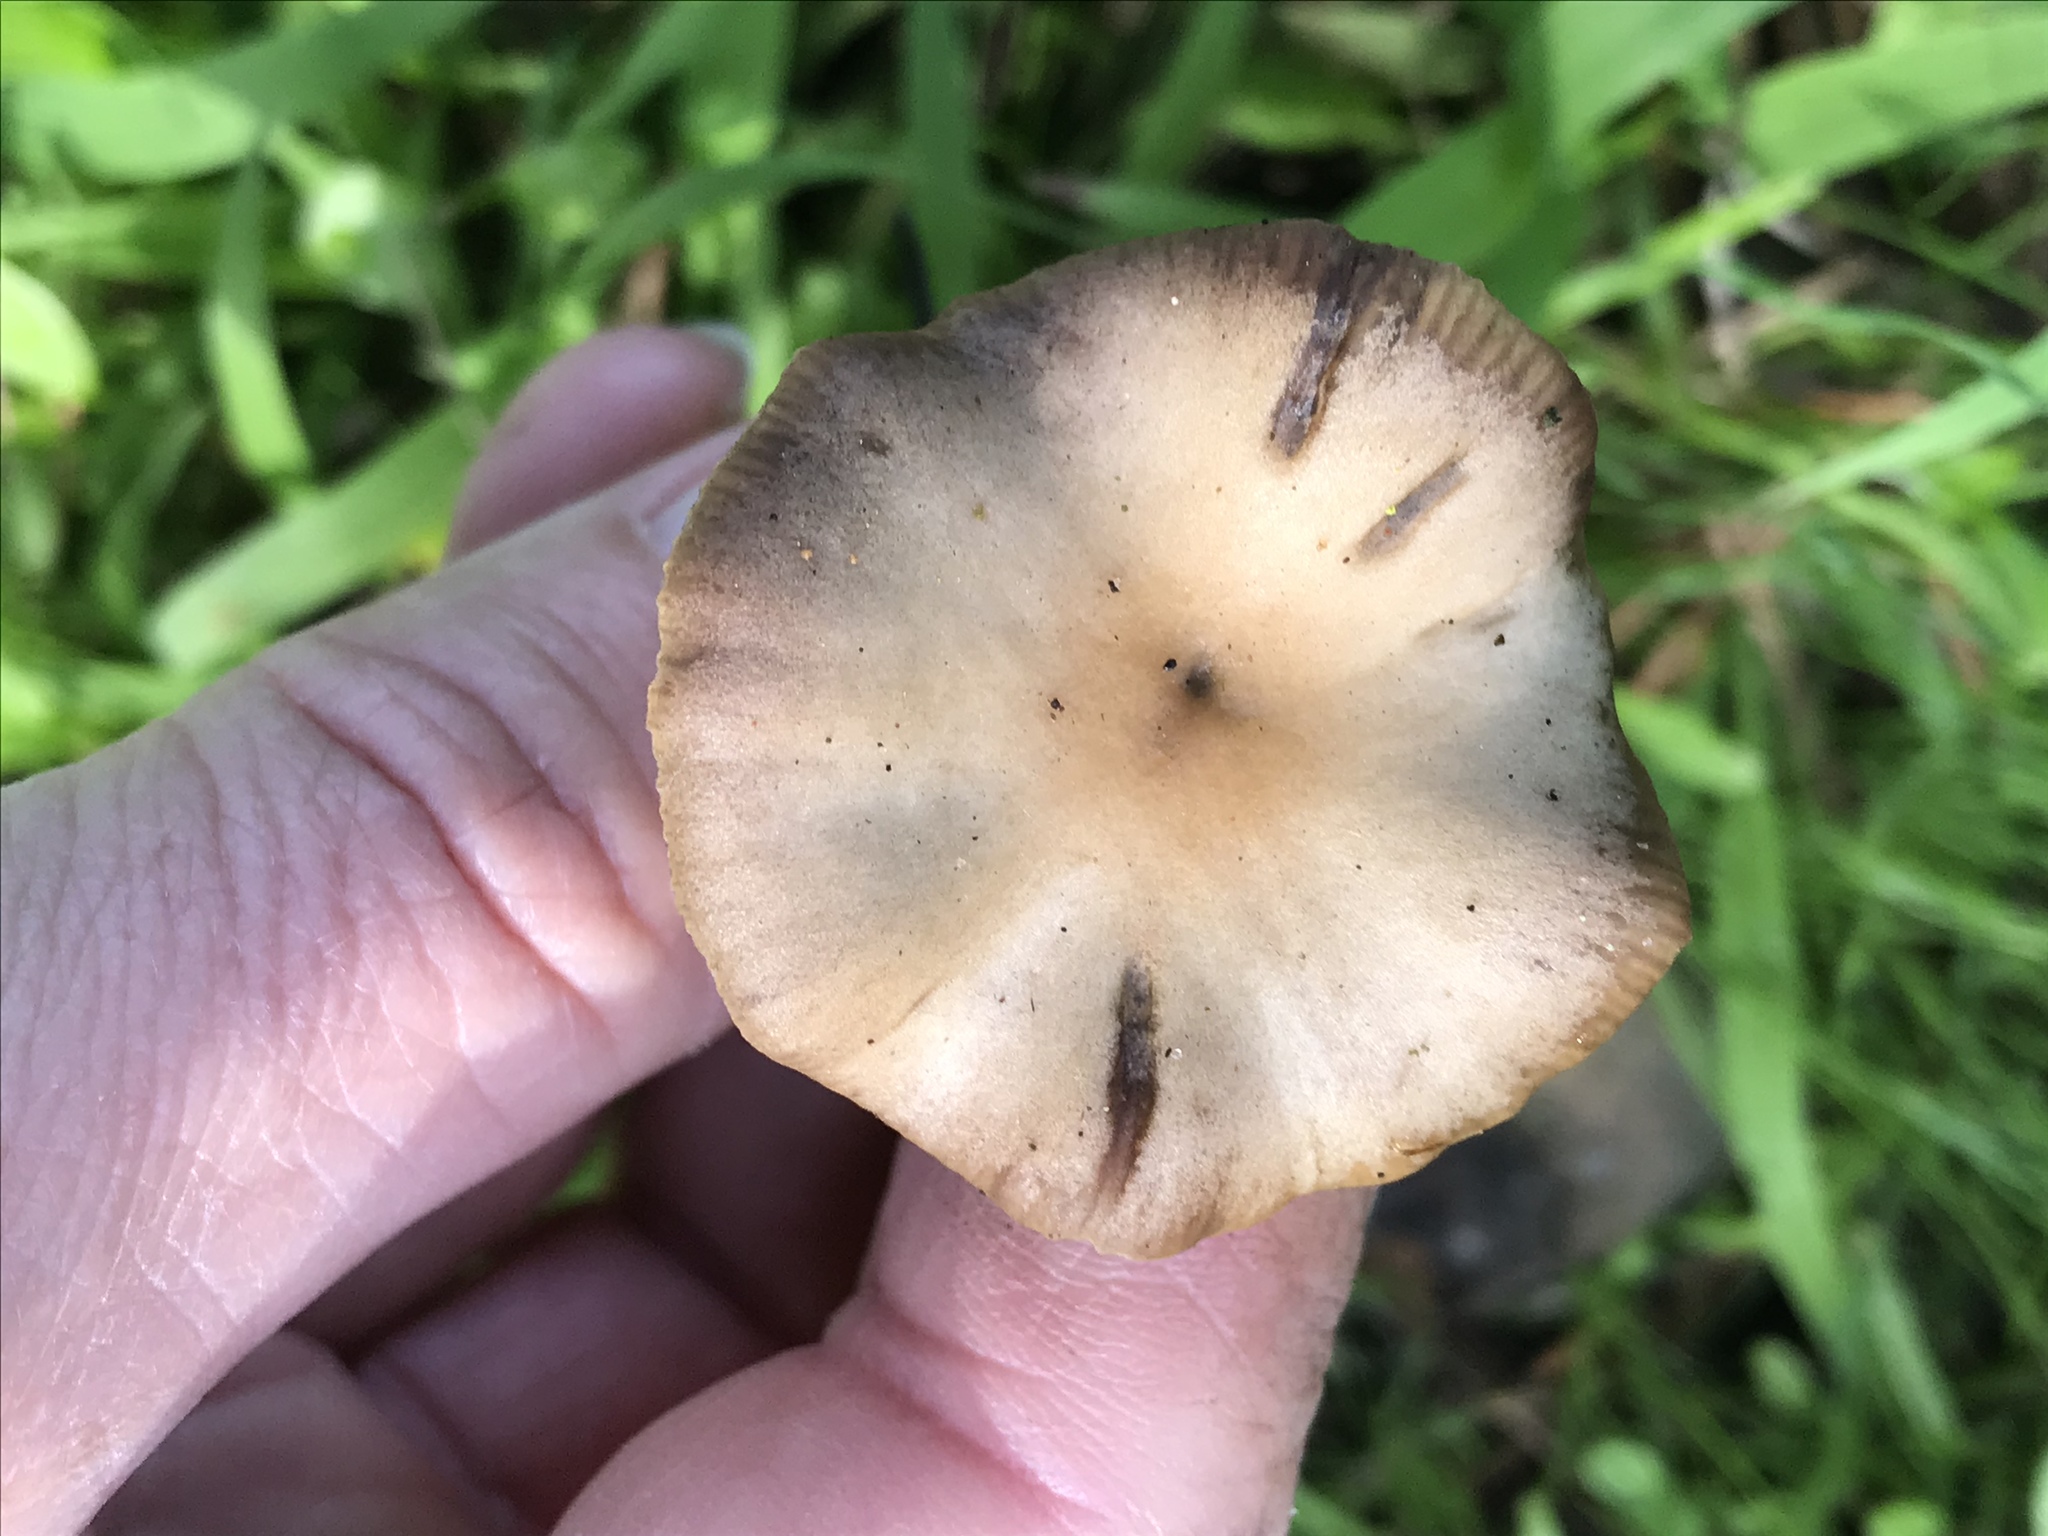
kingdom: Fungi
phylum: Basidiomycota
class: Agaricomycetes
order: Agaricales
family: Hymenogastraceae
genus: Psilocybe
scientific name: Psilocybe cyanescens
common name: Blueleg brownie
